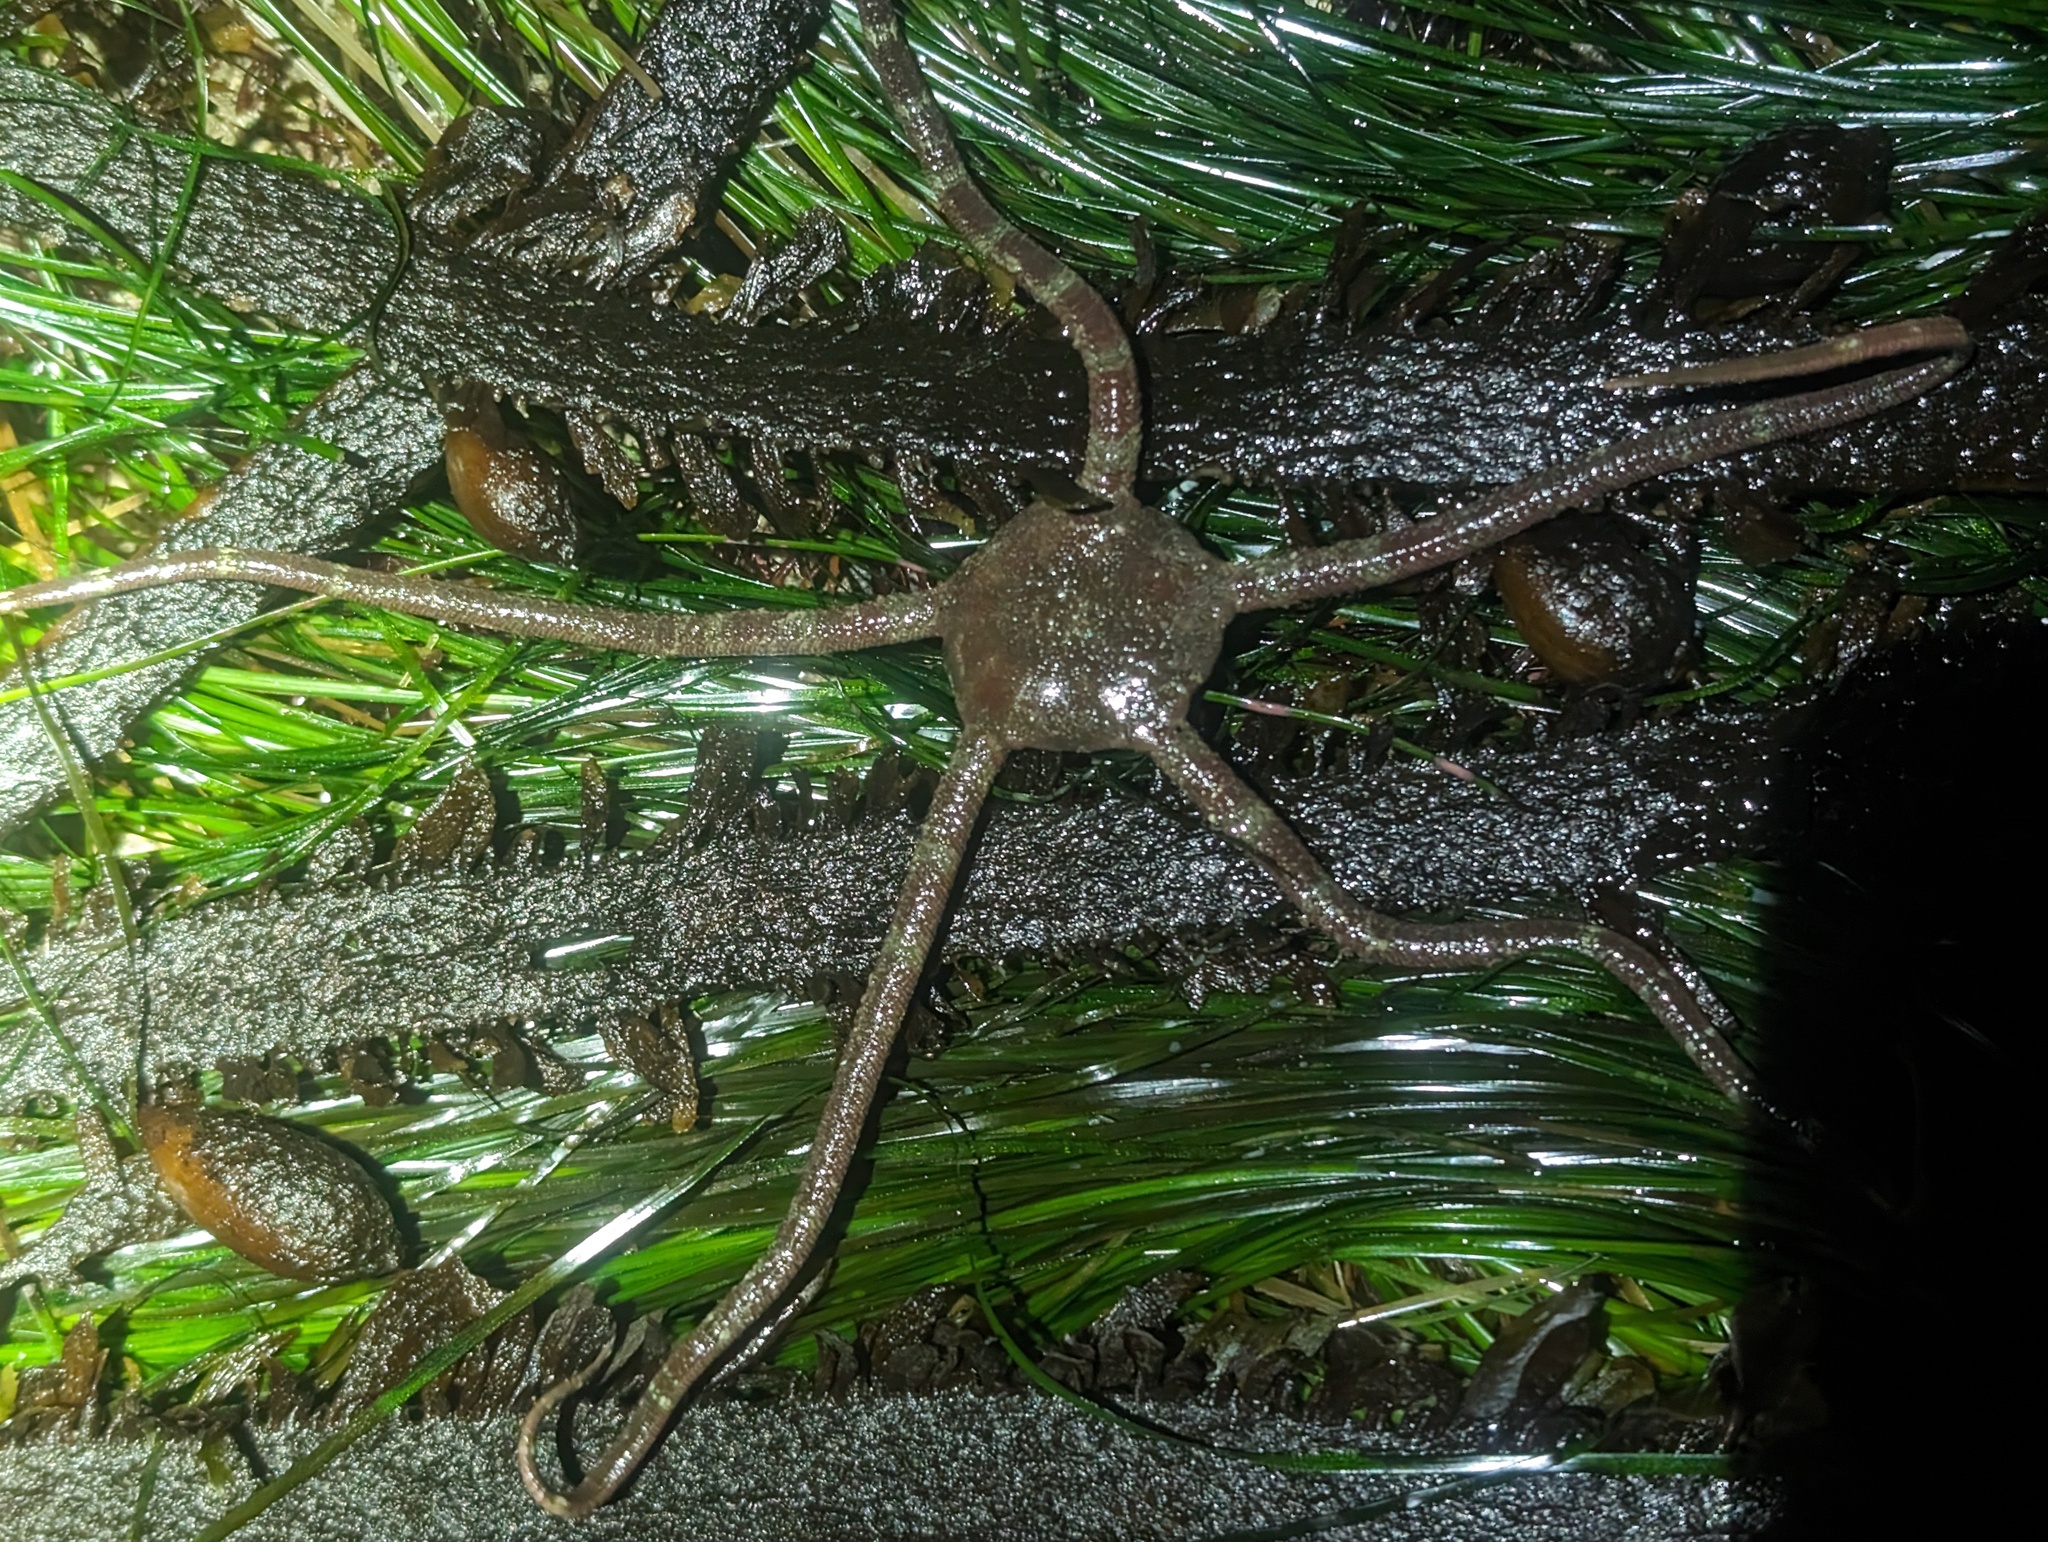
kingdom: Animalia
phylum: Echinodermata
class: Ophiuroidea
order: Ophiacanthida
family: Ophiodermatidae
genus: Ophioderma
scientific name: Ophioderma panamense
